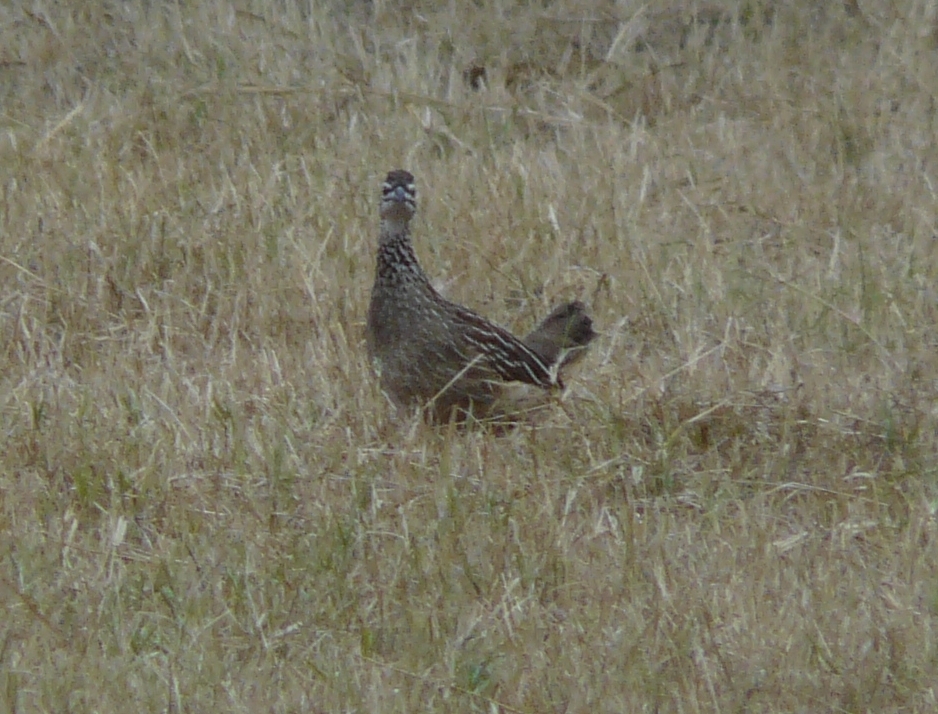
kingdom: Animalia
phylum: Chordata
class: Aves
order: Galliformes
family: Phasianidae
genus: Ortygornis
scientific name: Ortygornis sephaena
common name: Crested francolin
